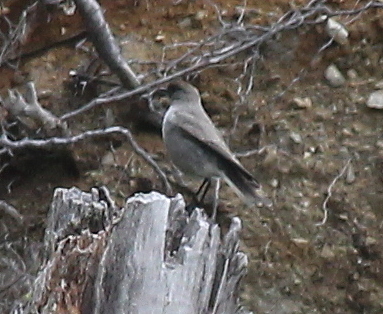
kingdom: Animalia
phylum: Chordata
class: Aves
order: Passeriformes
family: Tyrannidae
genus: Muscisaxicola
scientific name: Muscisaxicola maclovianus
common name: Dark-faced ground tyrant
